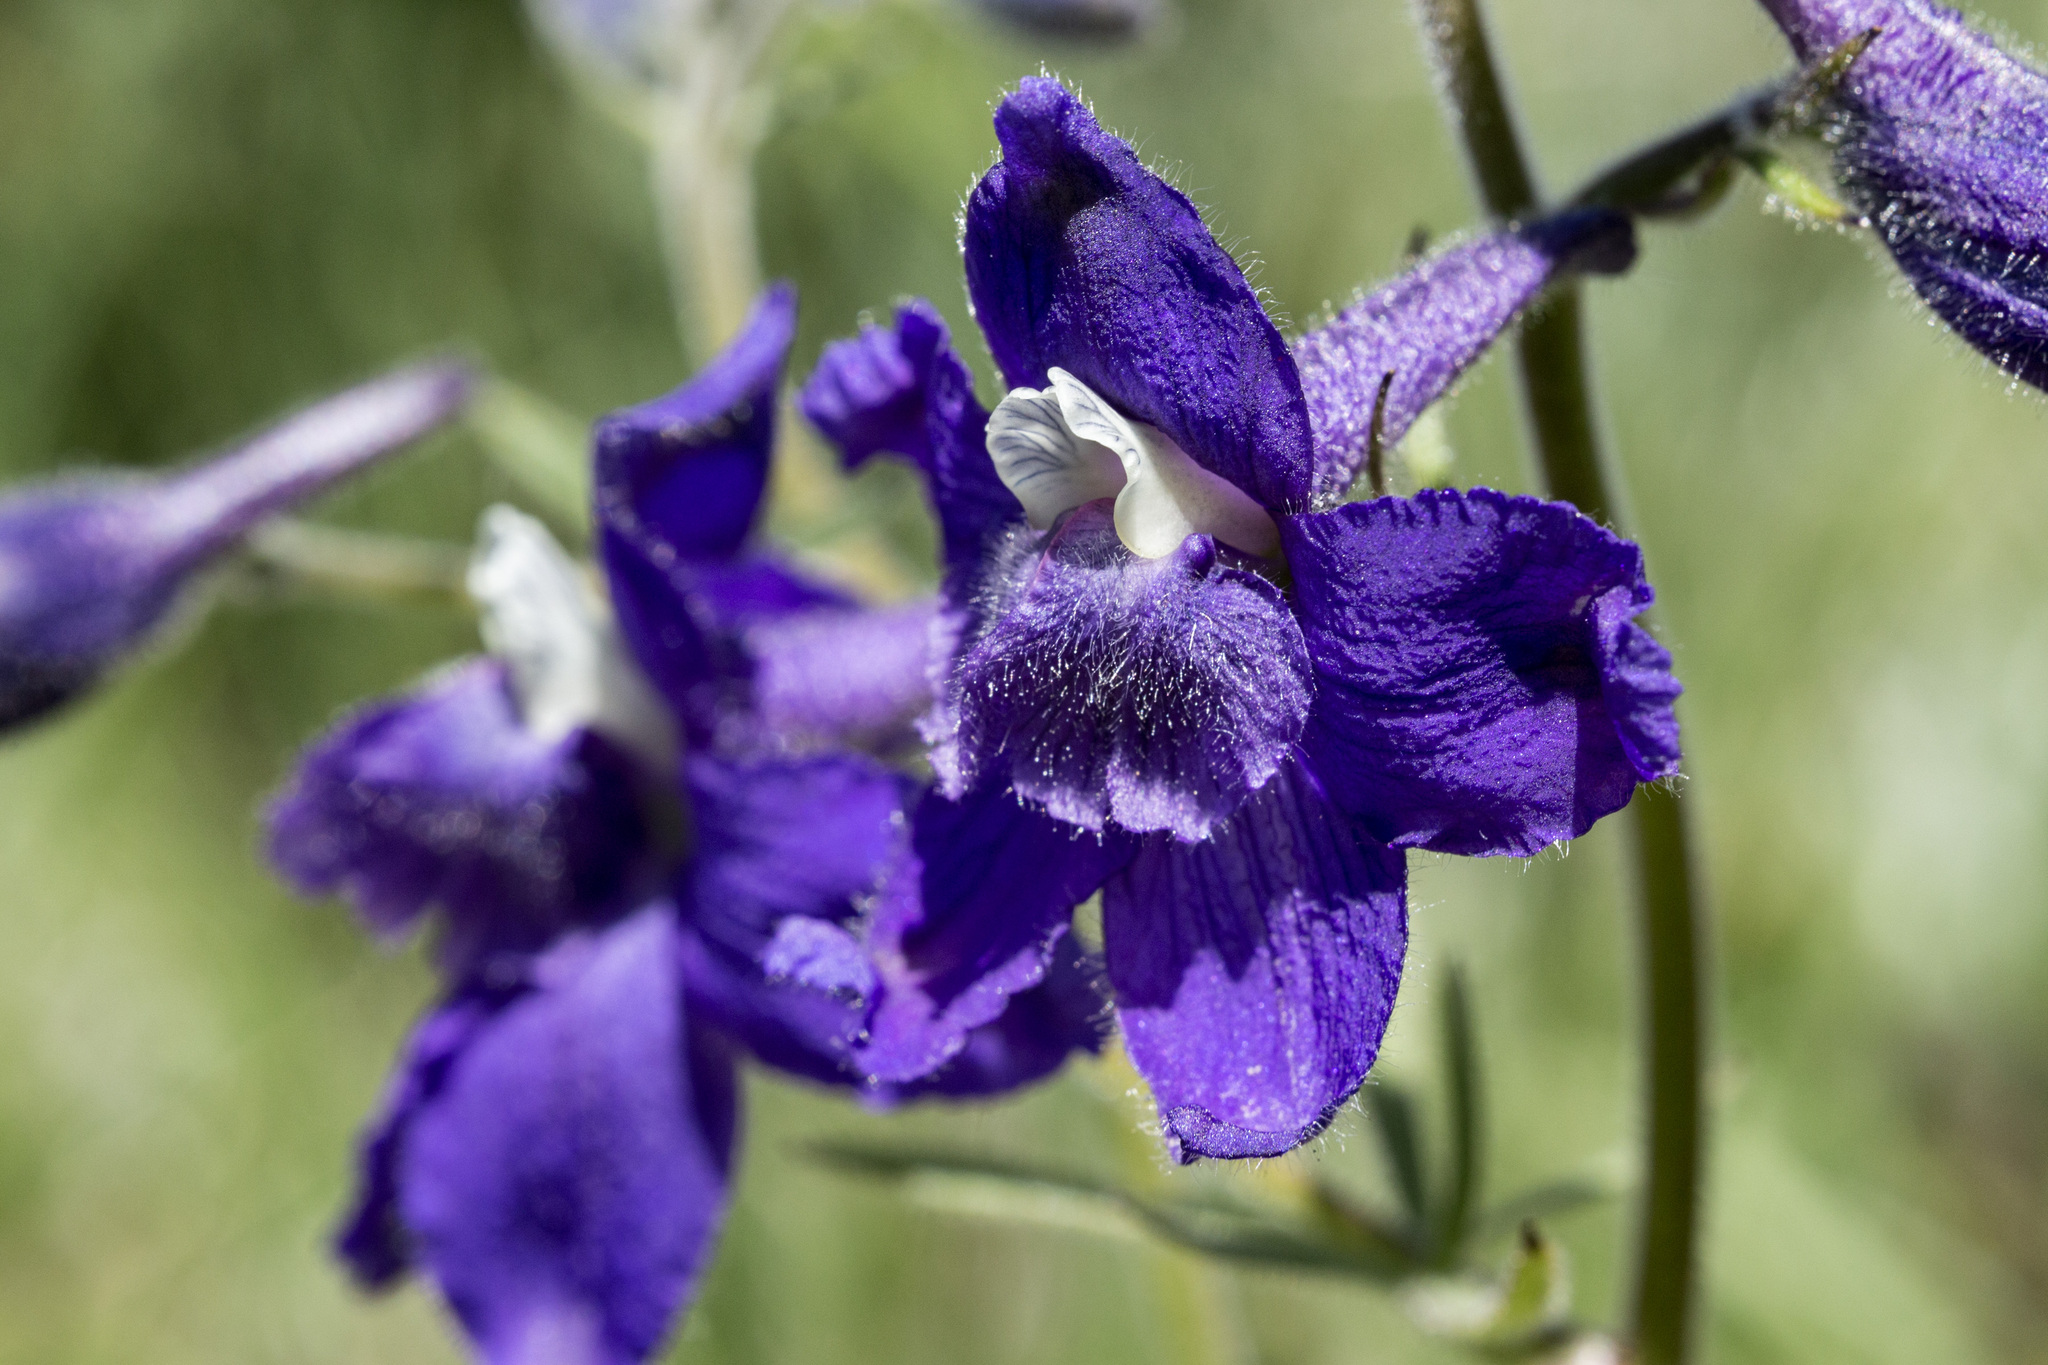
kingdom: Plantae
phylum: Tracheophyta
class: Magnoliopsida
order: Ranunculales
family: Ranunculaceae
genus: Delphinium
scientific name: Delphinium bicolor
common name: Low larkspur
